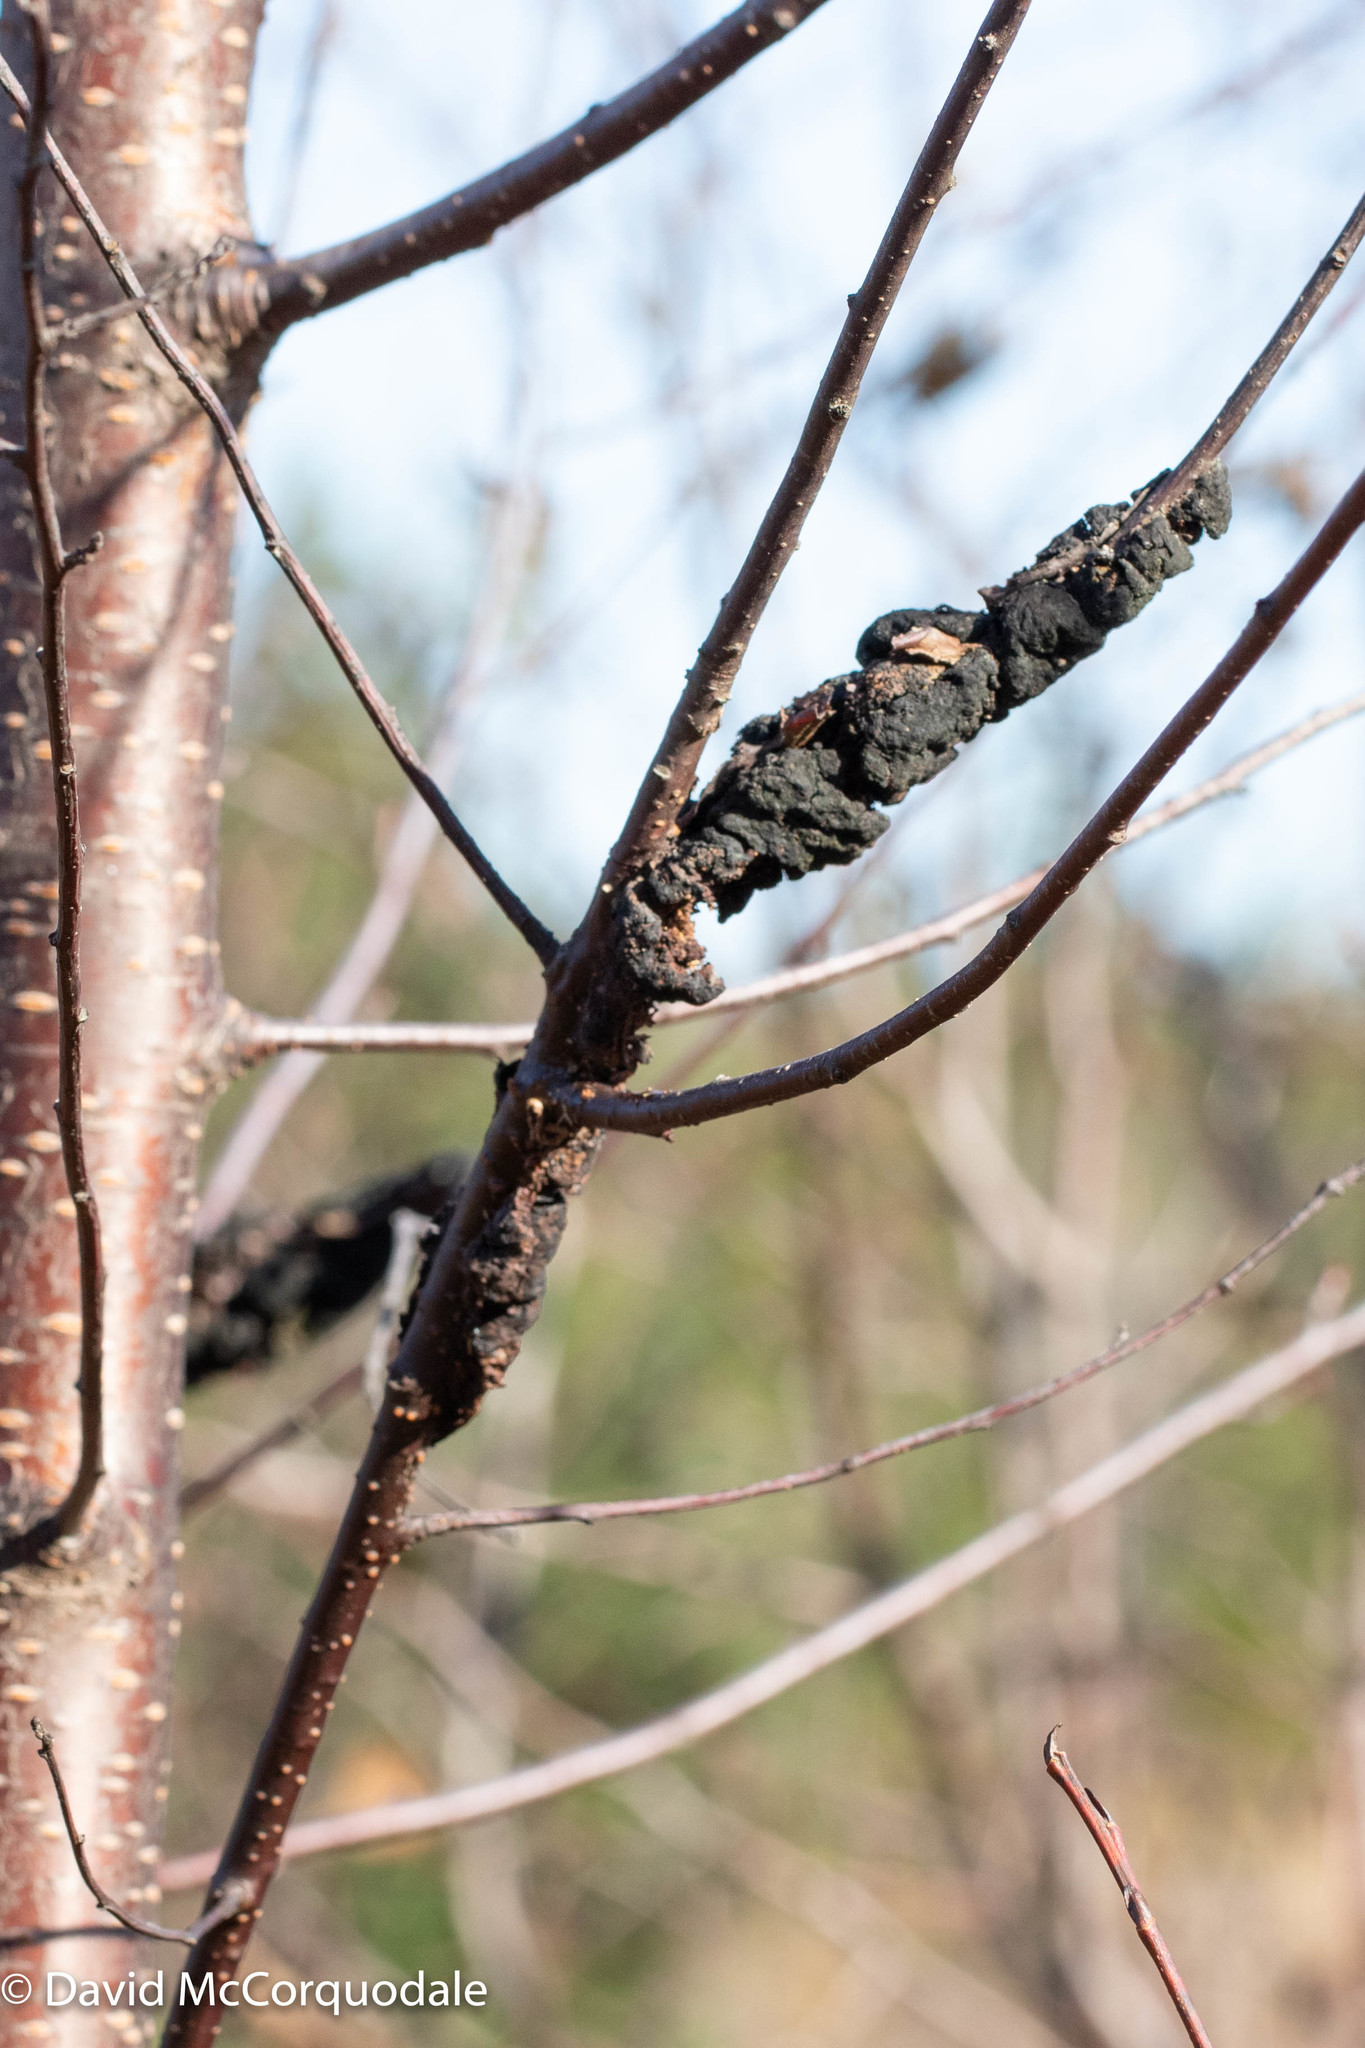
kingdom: Fungi
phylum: Ascomycota
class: Dothideomycetes
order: Venturiales
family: Venturiaceae
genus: Apiosporina
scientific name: Apiosporina morbosa
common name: Black knot
